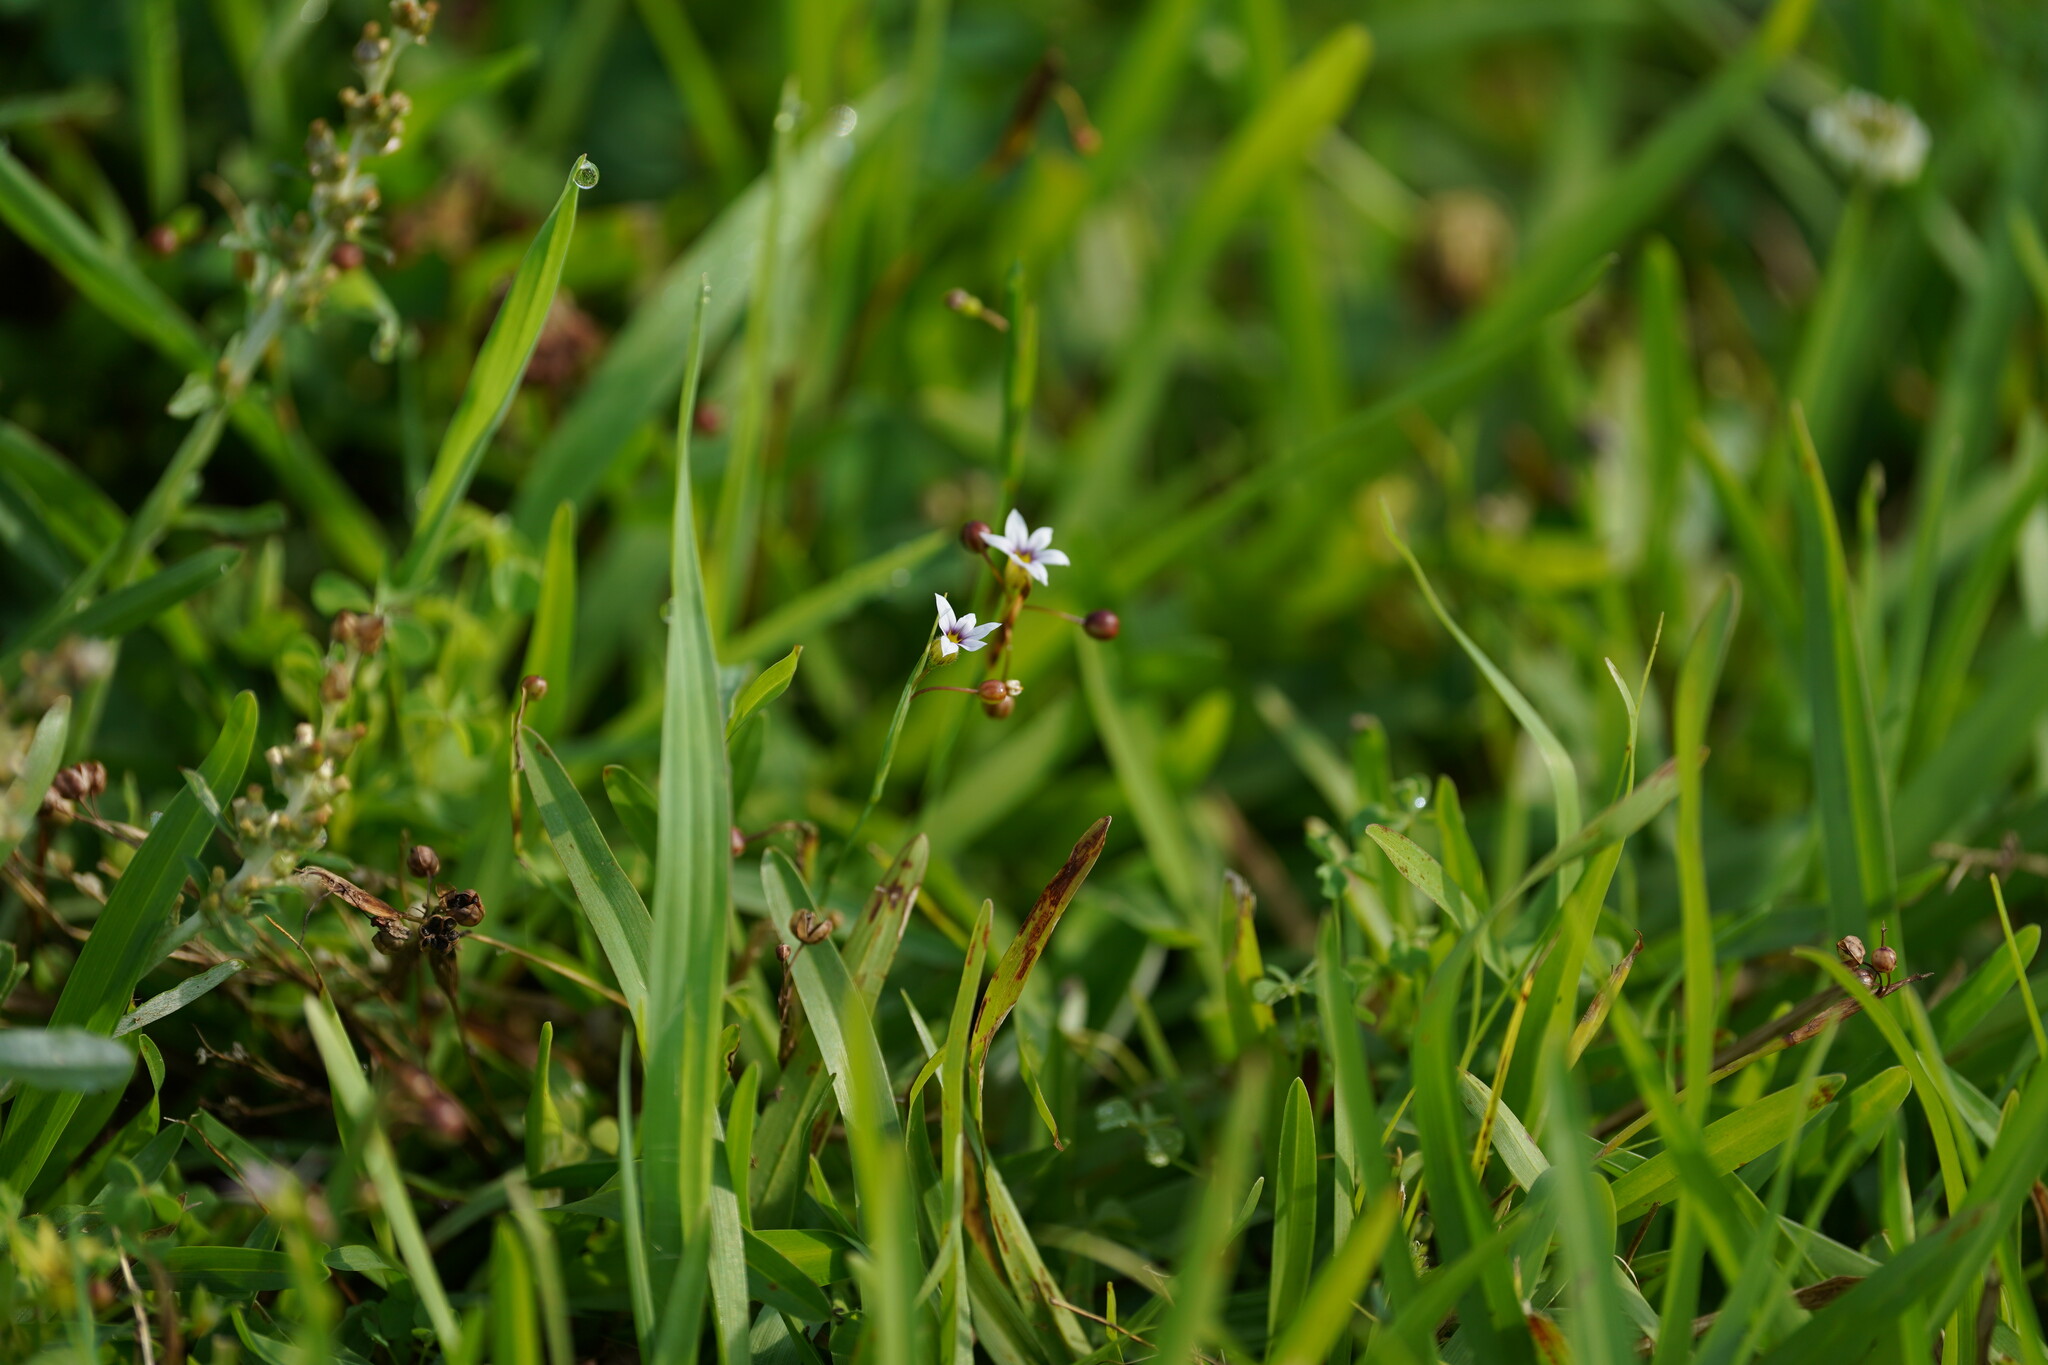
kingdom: Plantae
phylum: Tracheophyta
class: Liliopsida
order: Asparagales
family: Iridaceae
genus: Sisyrinchium
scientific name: Sisyrinchium micranthum
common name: Bermuda pigroot
